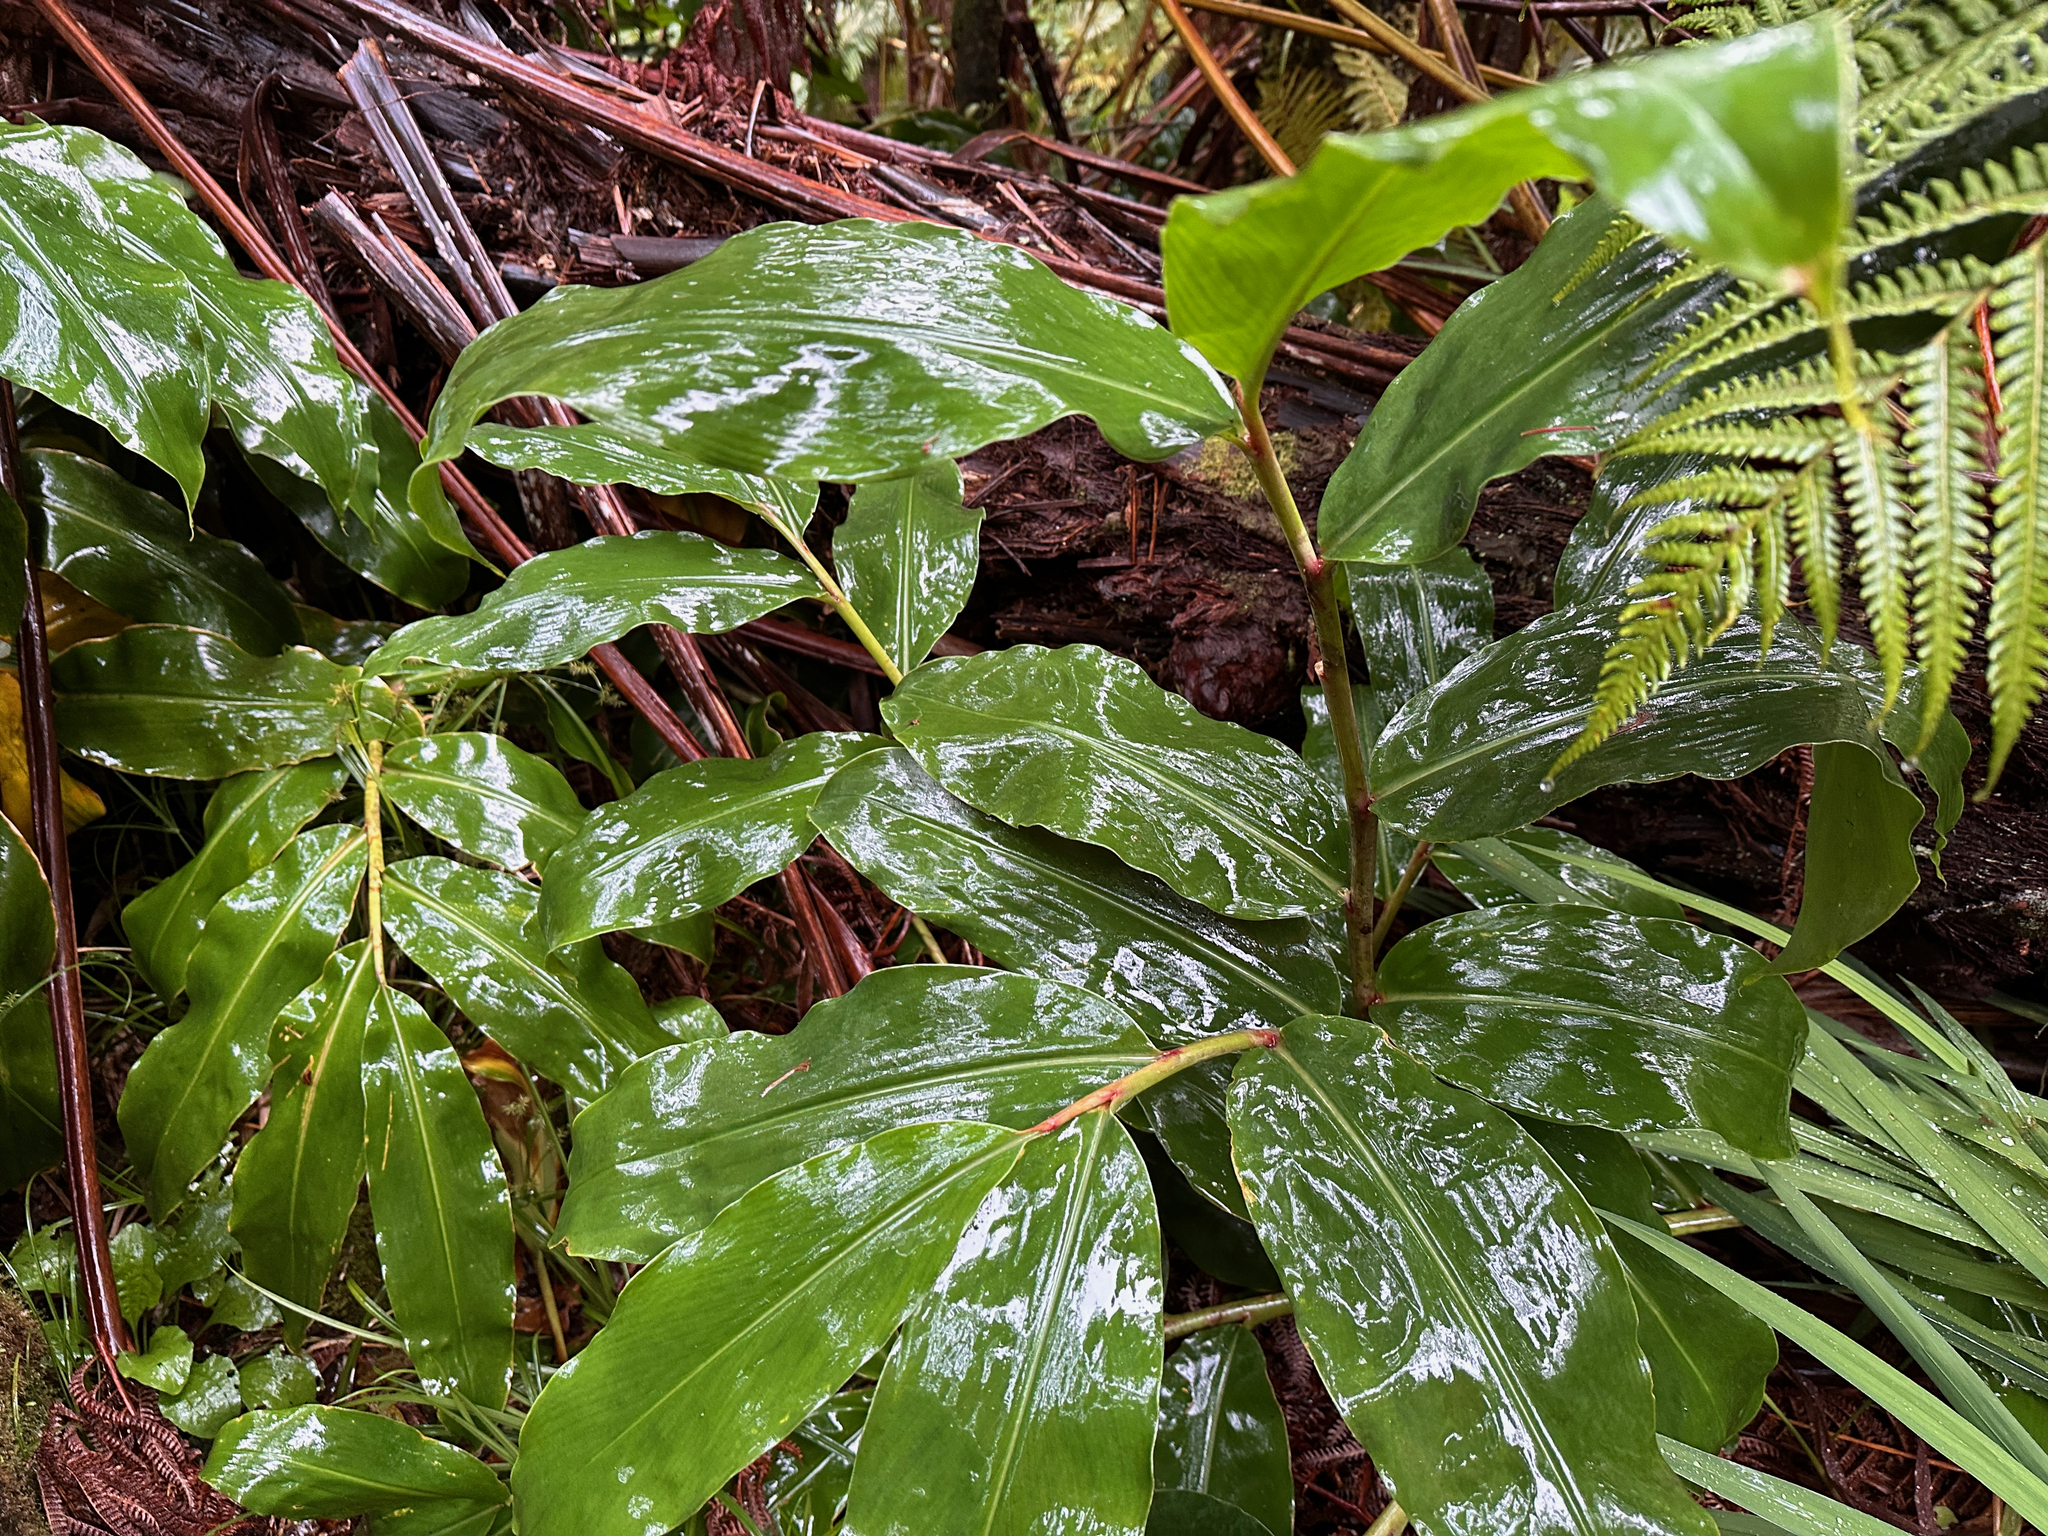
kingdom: Plantae
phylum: Tracheophyta
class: Liliopsida
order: Zingiberales
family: Zingiberaceae
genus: Hedychium
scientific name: Hedychium gardnerianum
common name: Himalayan ginger
